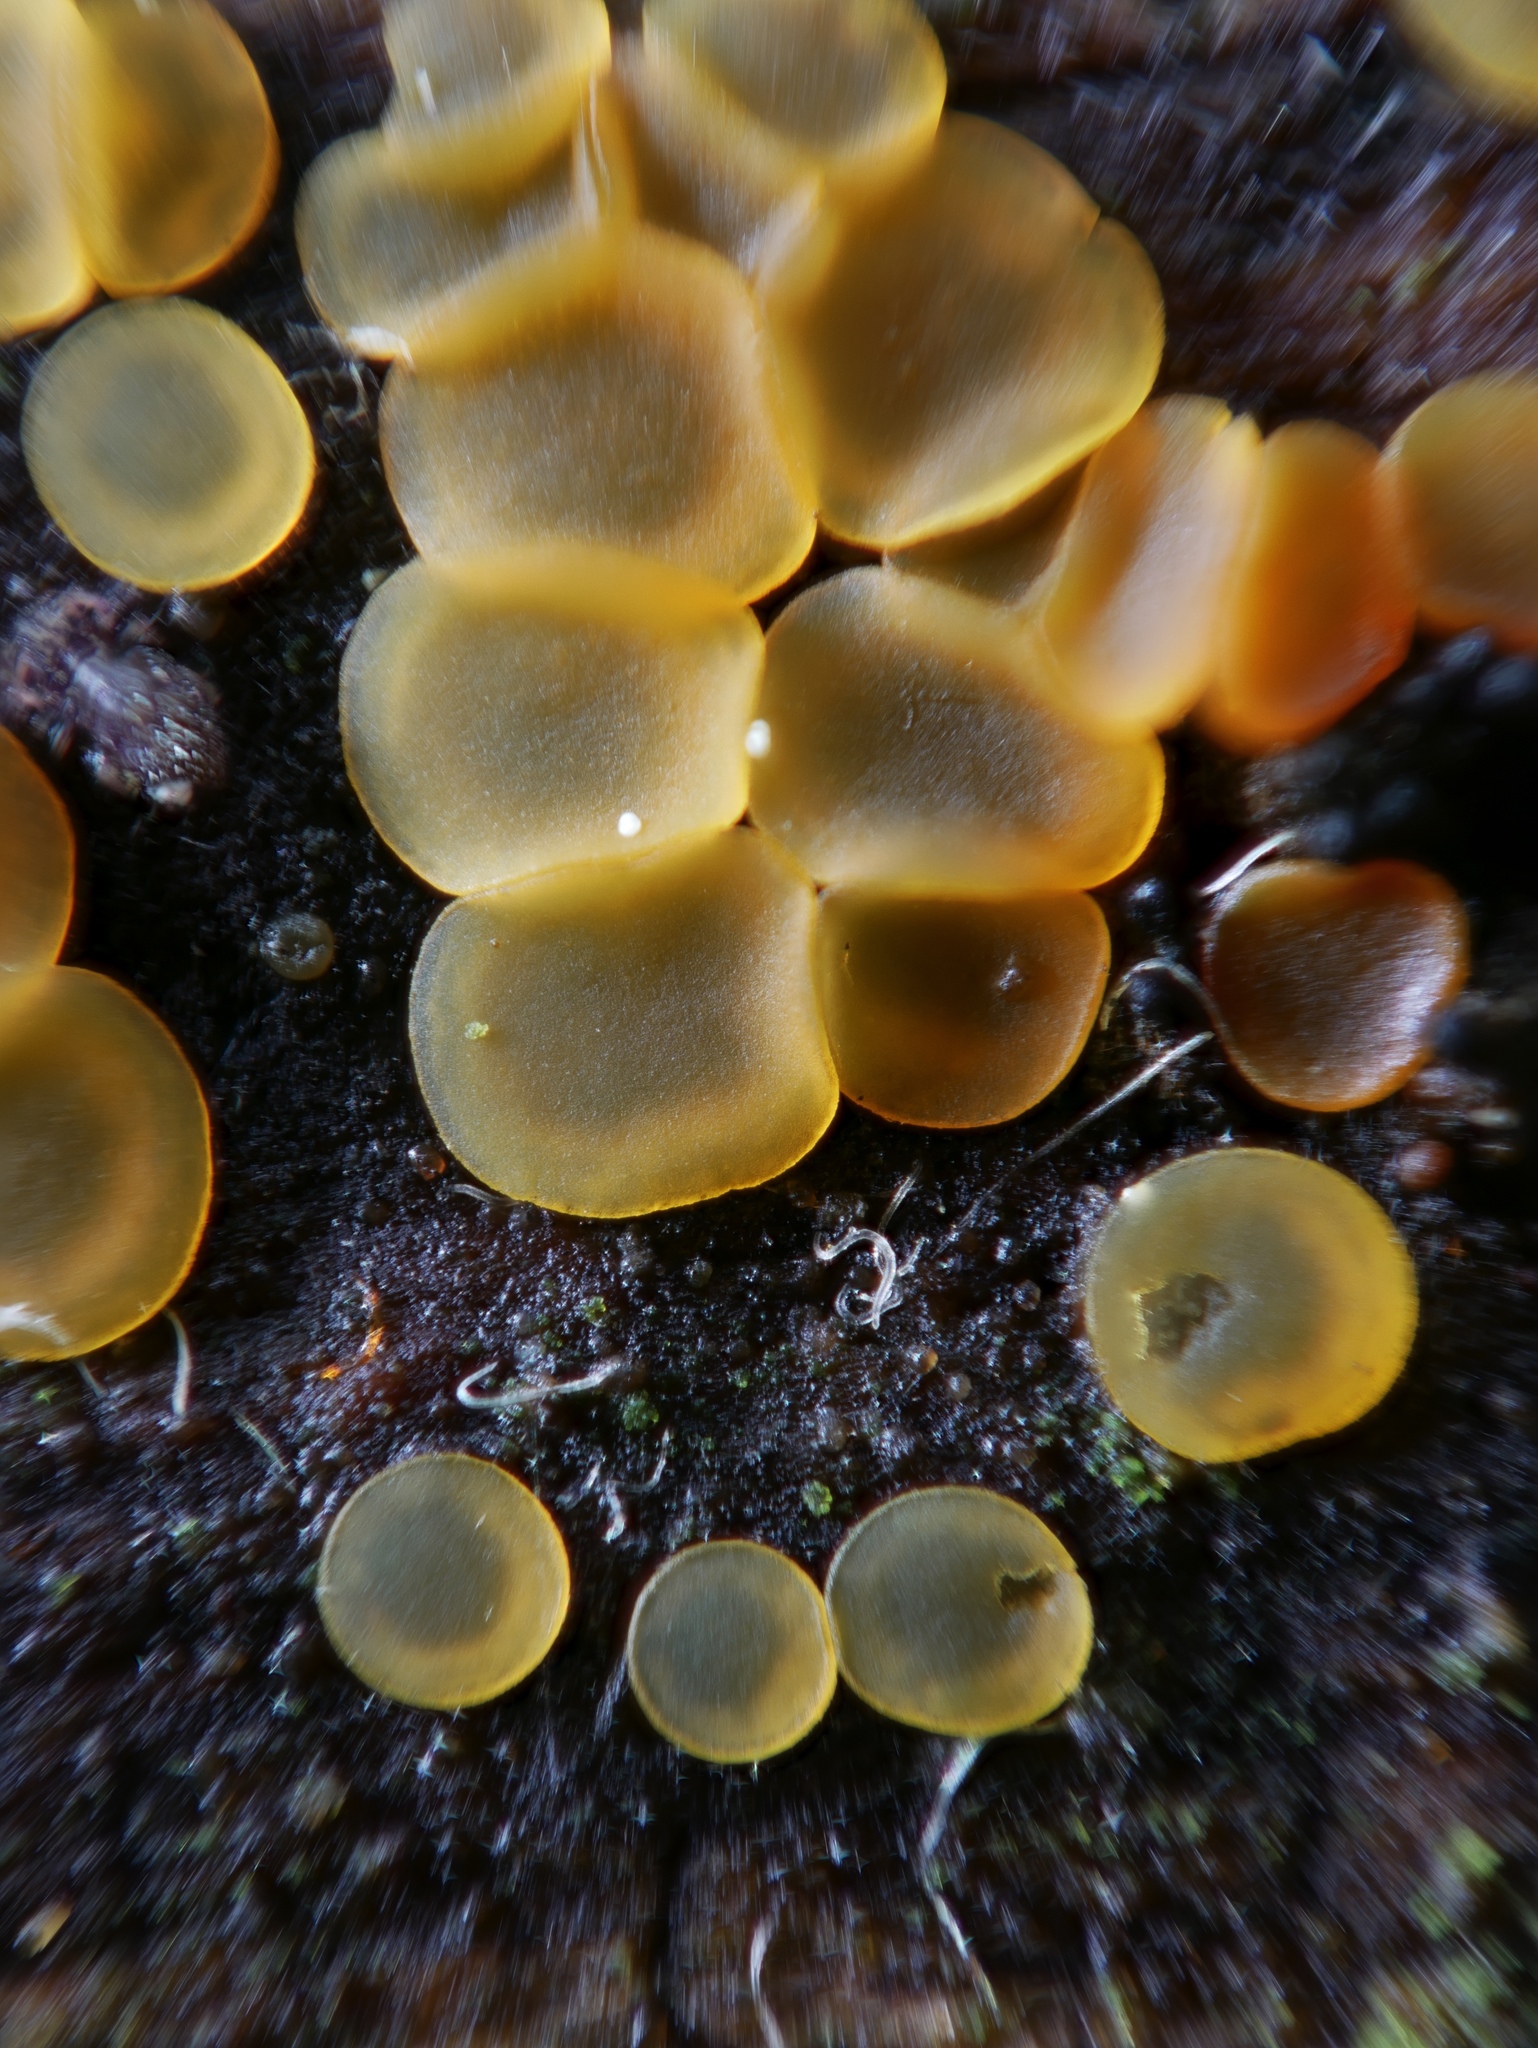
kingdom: Fungi
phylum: Ascomycota
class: Orbiliomycetes
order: Orbiliales
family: Orbiliaceae
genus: Orbilia
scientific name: Orbilia xanthostigma
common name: Common glasscup
